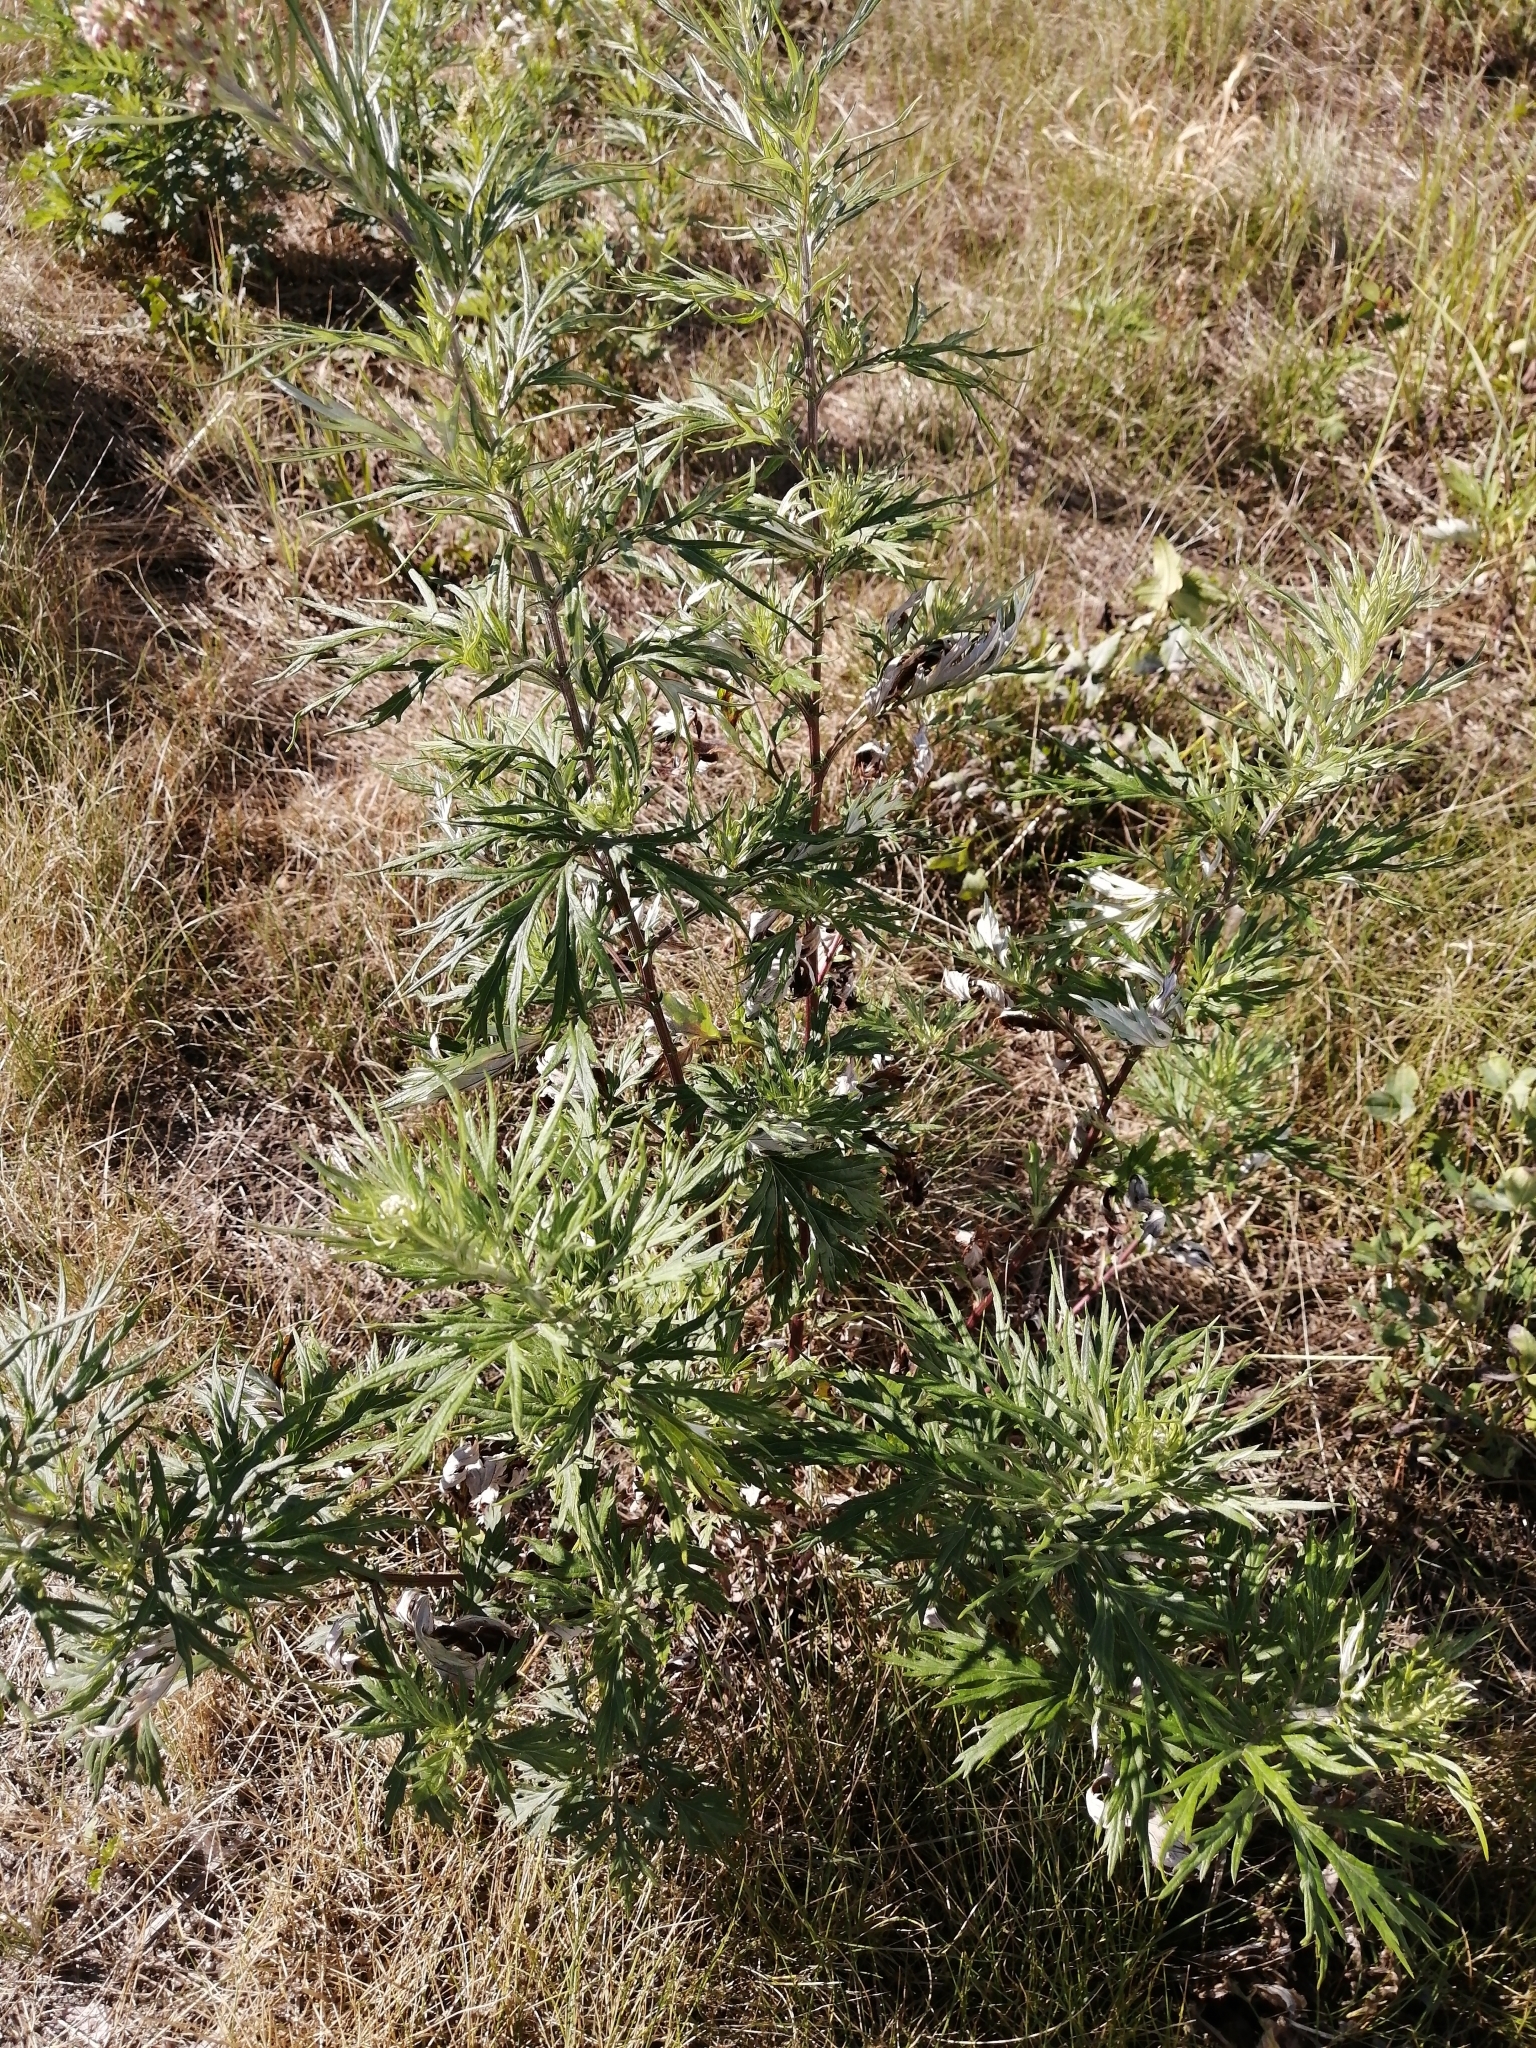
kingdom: Plantae
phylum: Tracheophyta
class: Magnoliopsida
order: Asterales
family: Asteraceae
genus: Artemisia
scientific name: Artemisia vulgaris
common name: Mugwort
